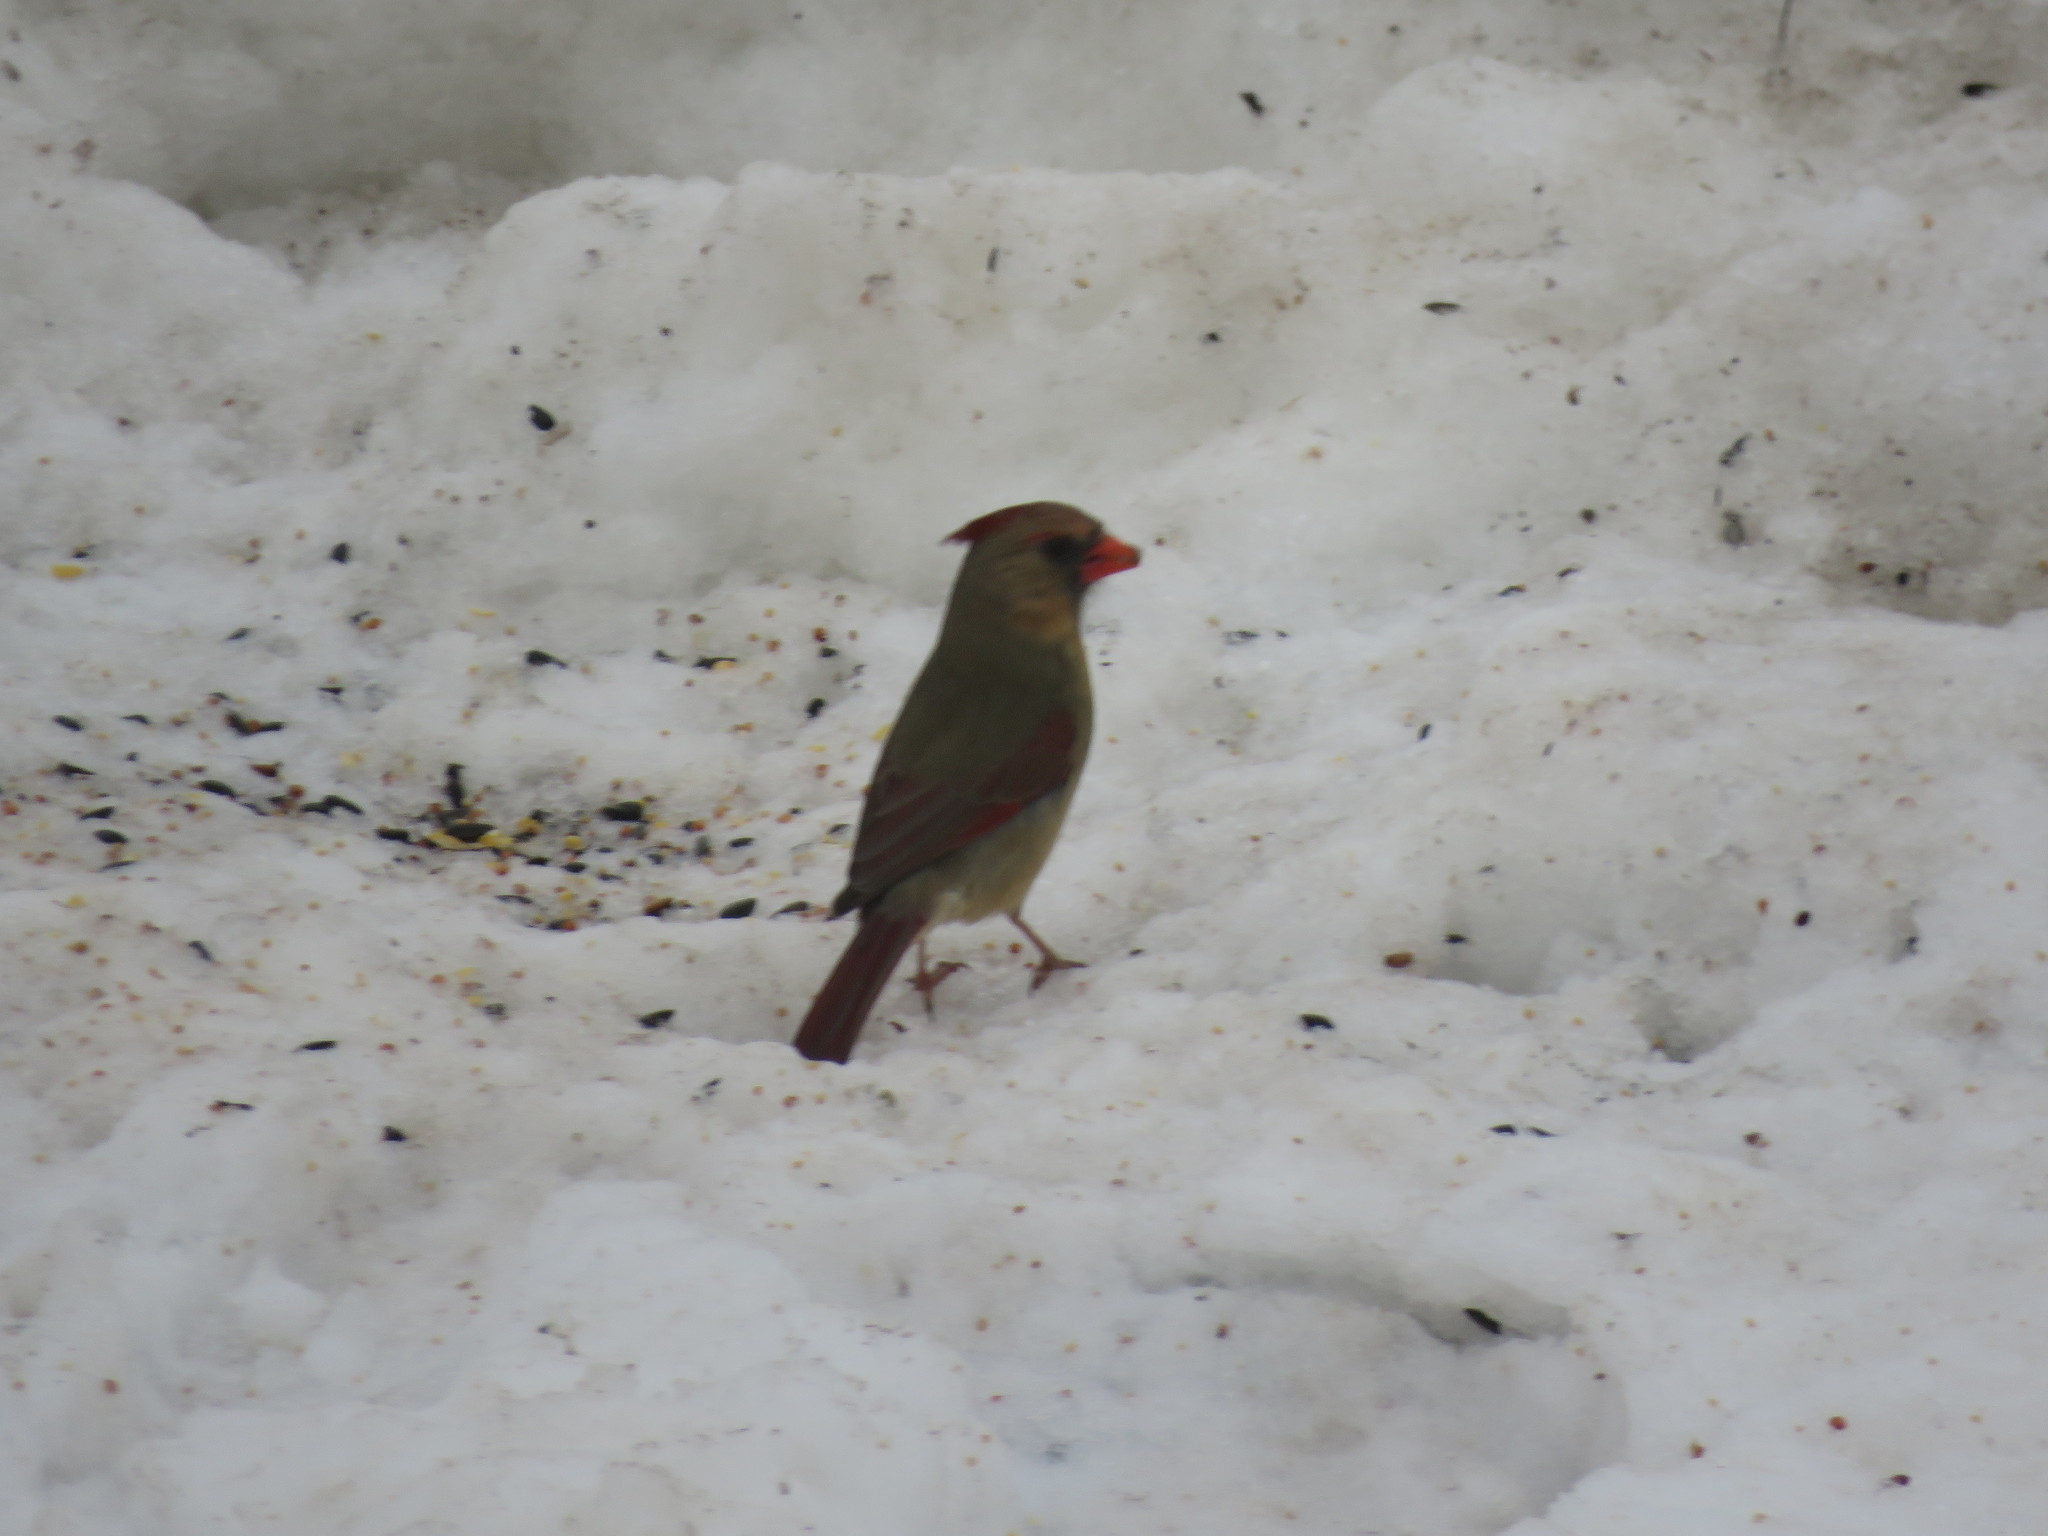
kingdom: Animalia
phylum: Chordata
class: Aves
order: Passeriformes
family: Cardinalidae
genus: Cardinalis
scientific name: Cardinalis cardinalis
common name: Northern cardinal
